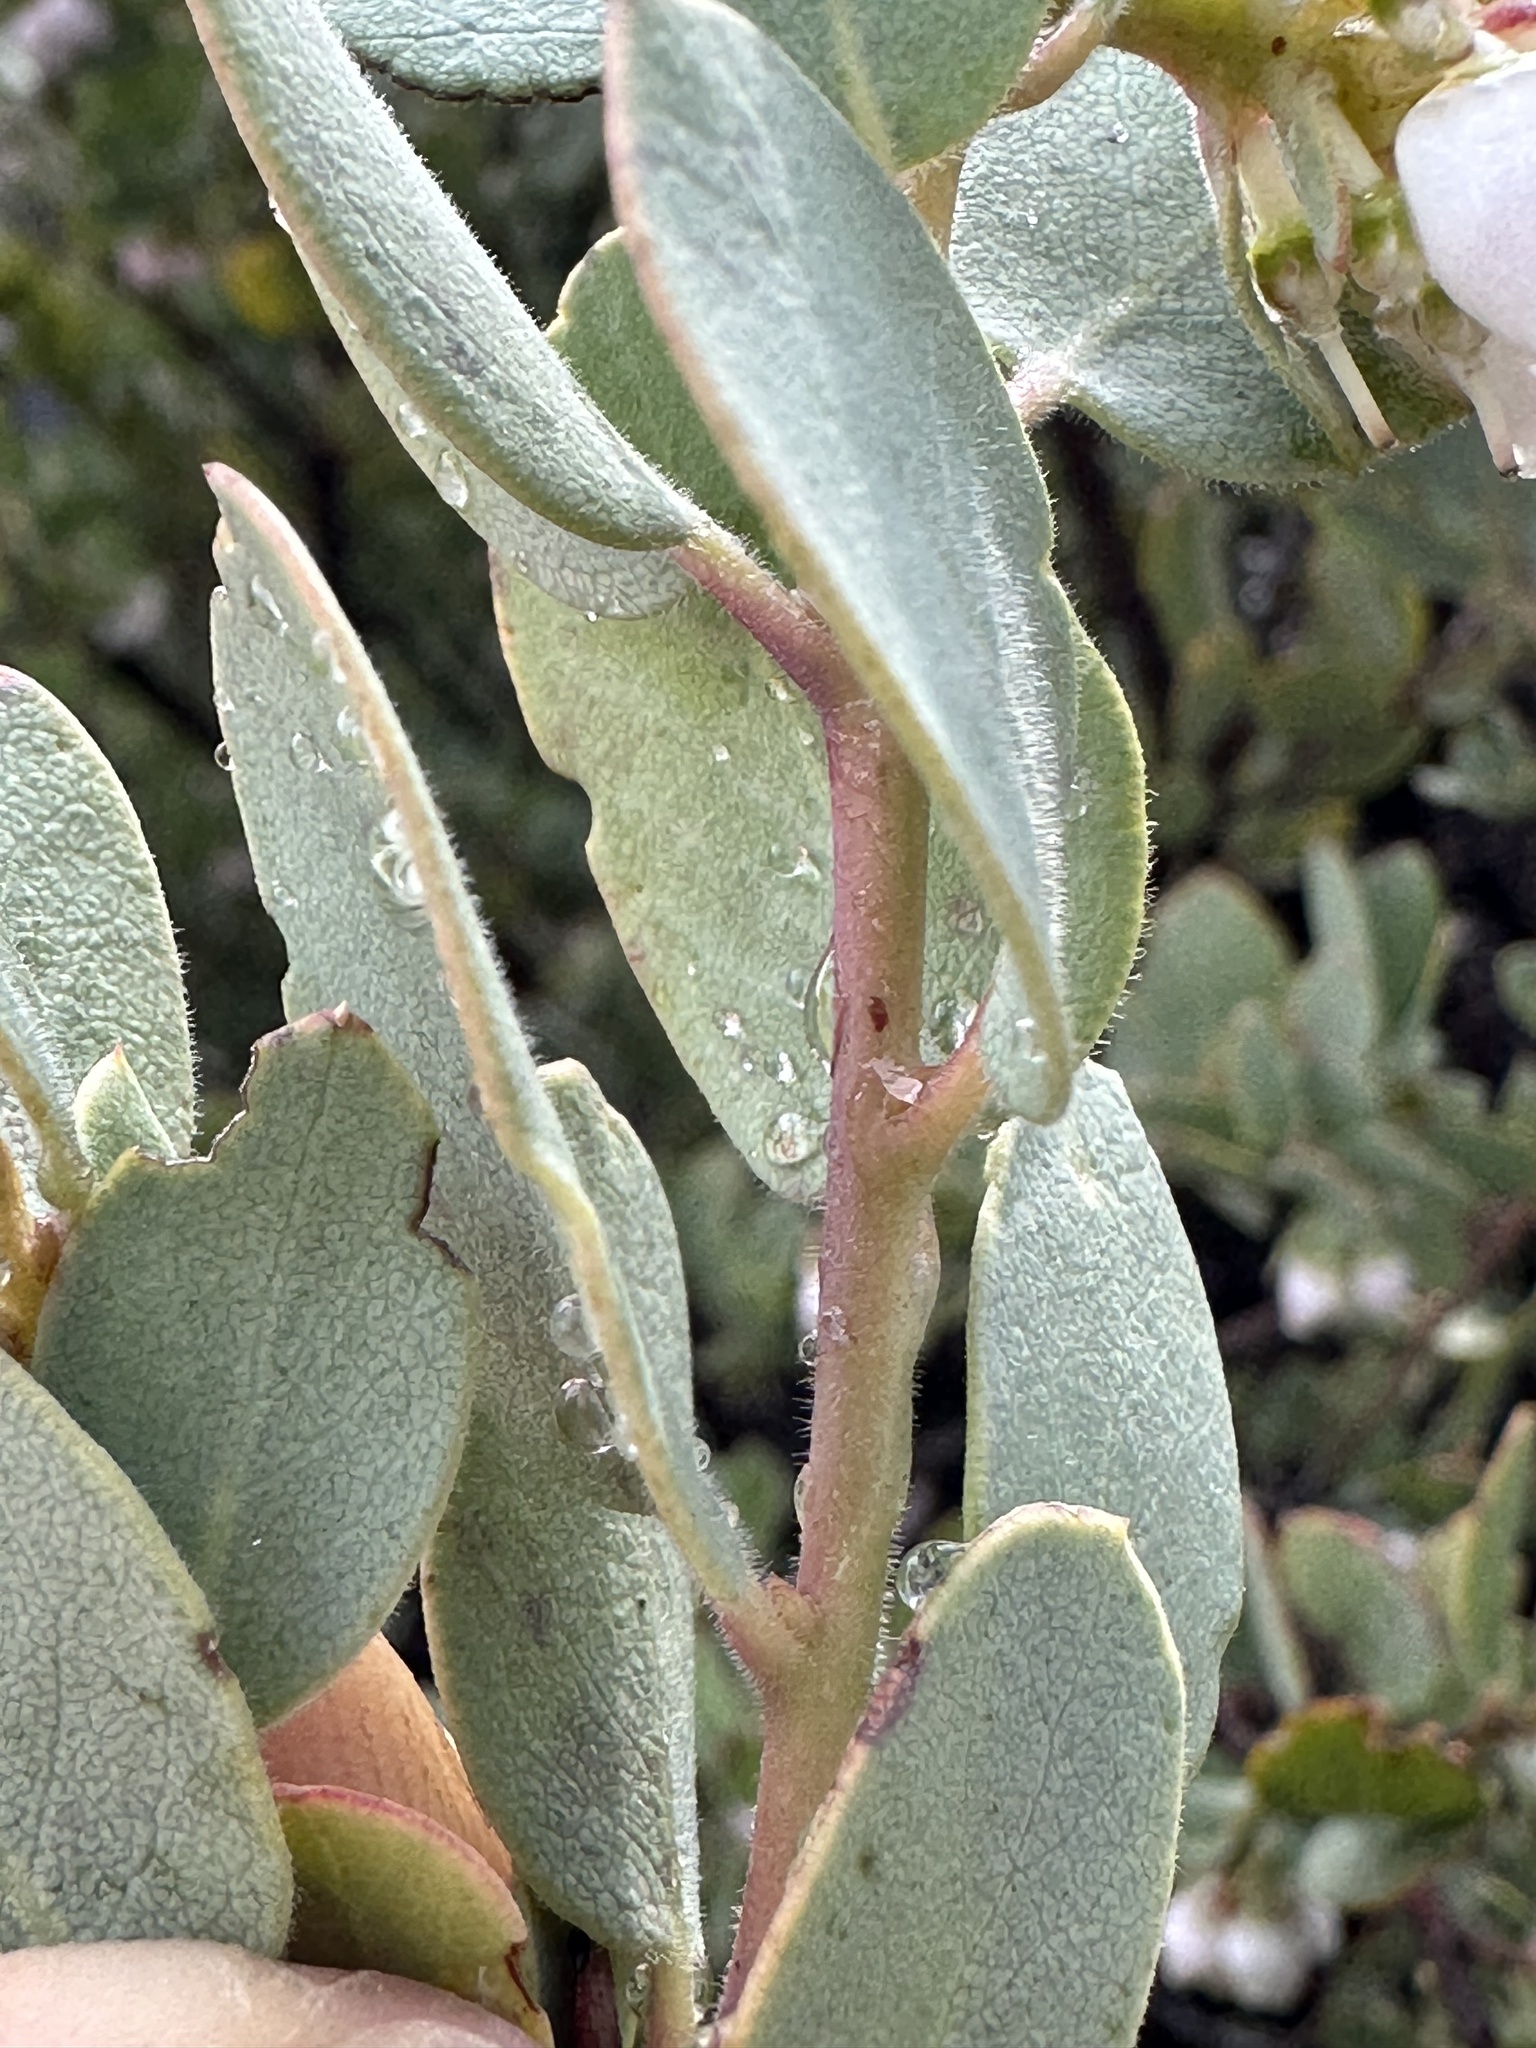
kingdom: Plantae
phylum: Tracheophyta
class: Magnoliopsida
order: Ericales
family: Ericaceae
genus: Arctostaphylos
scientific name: Arctostaphylos nissenana
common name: Nissenan manzanita
